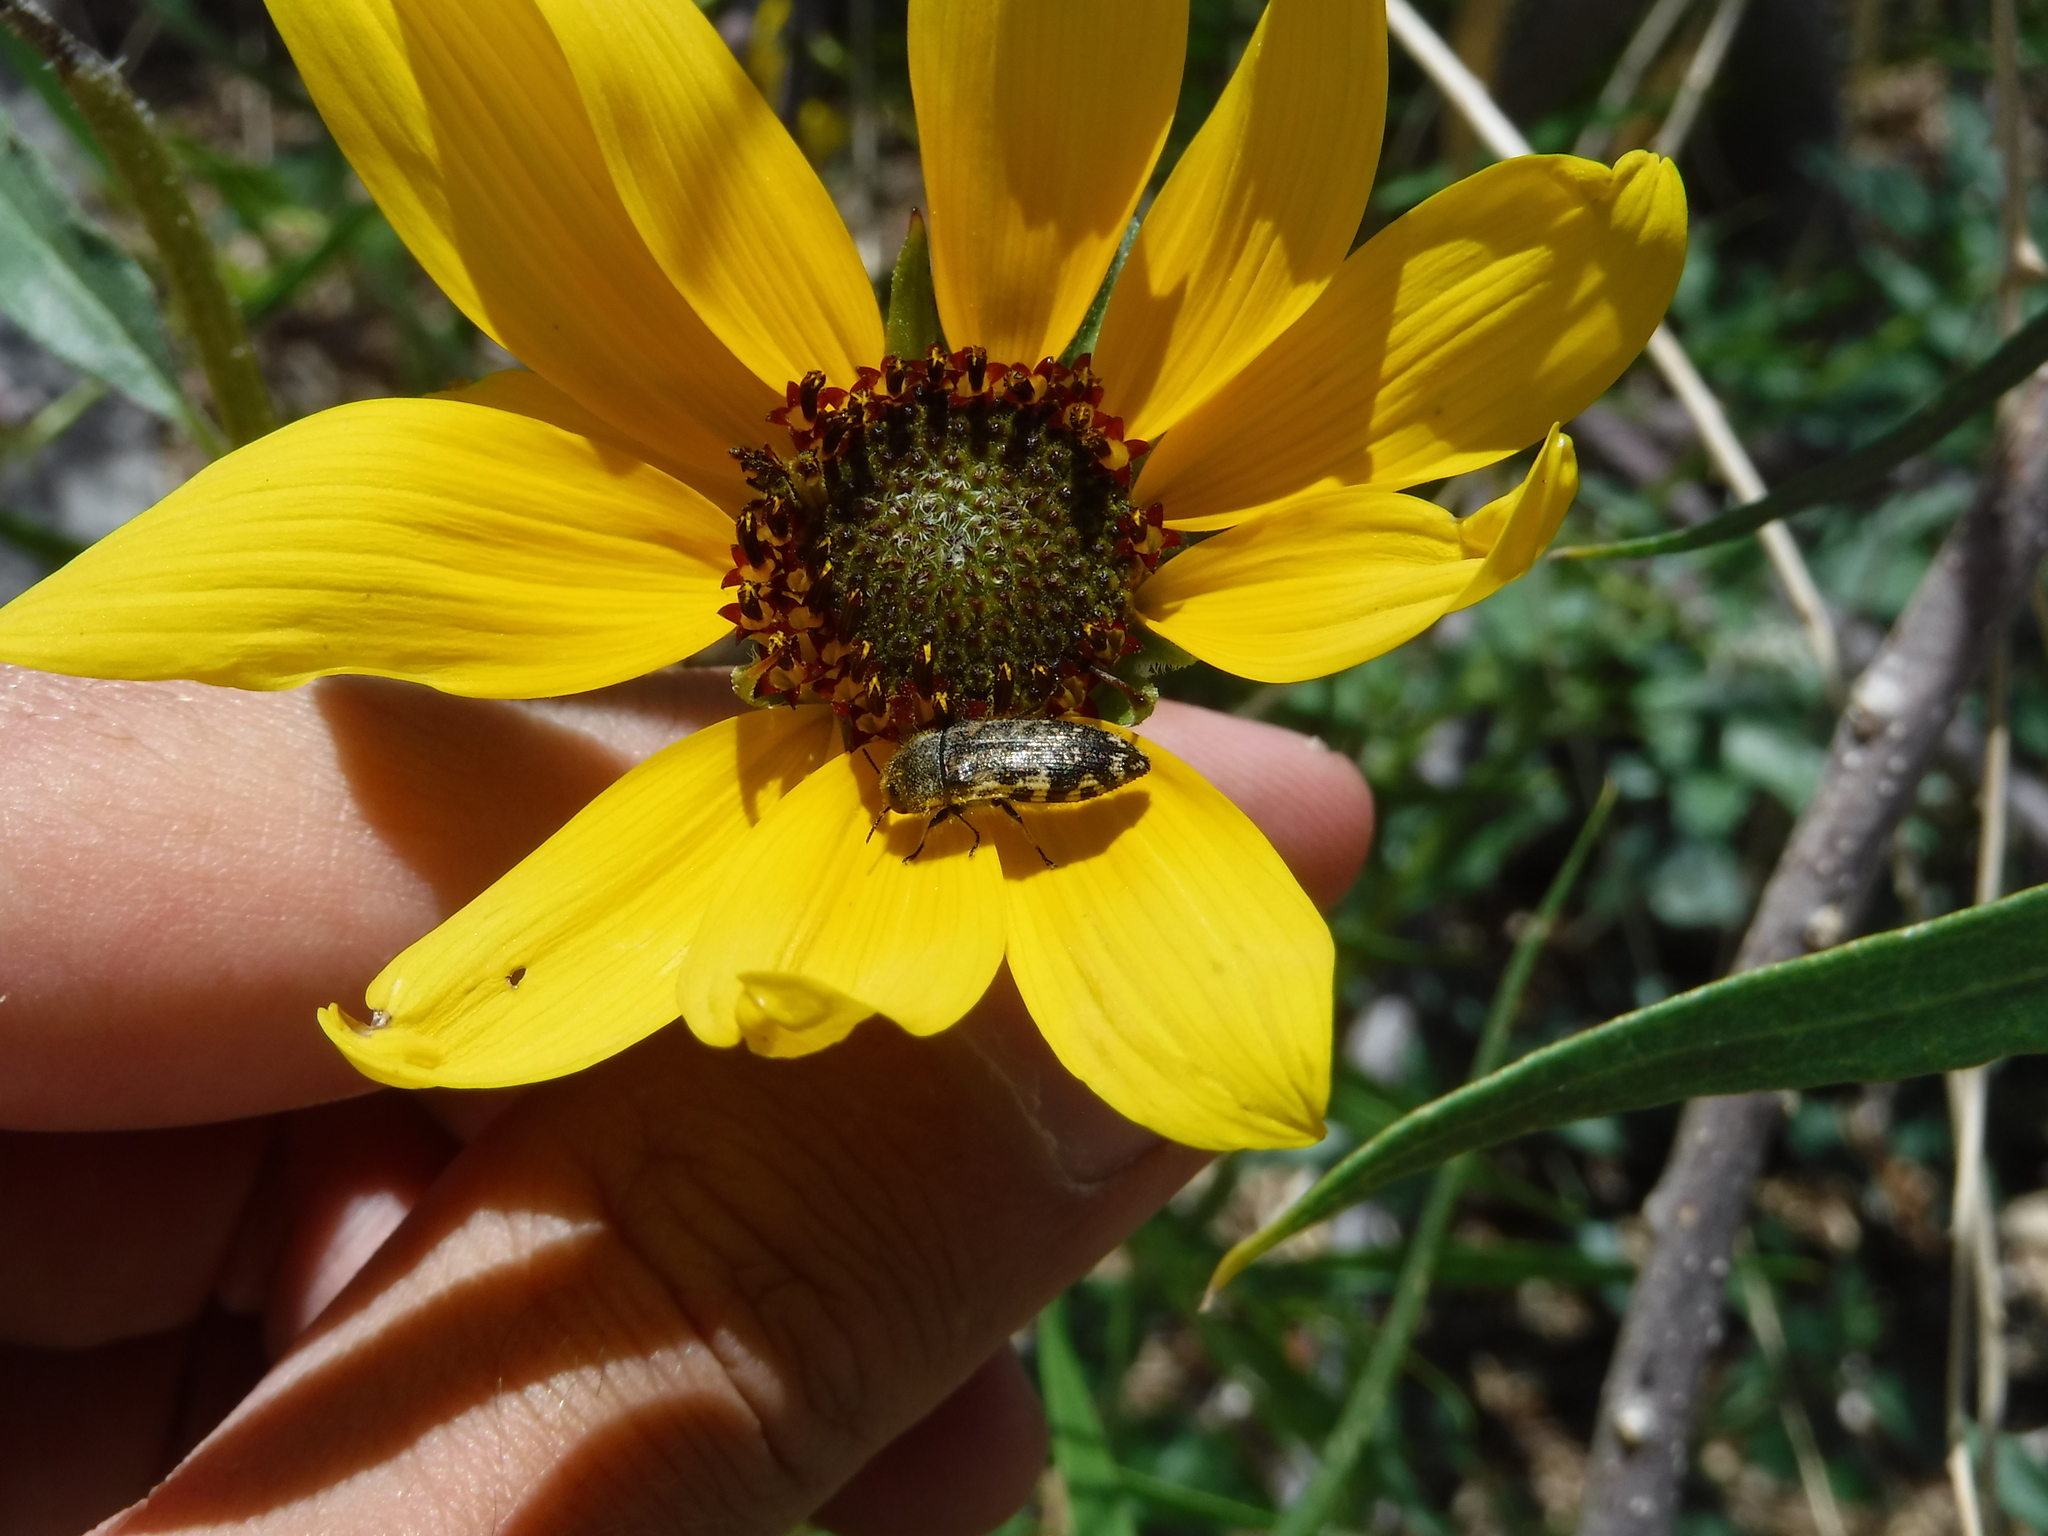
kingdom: Animalia
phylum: Arthropoda
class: Insecta
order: Coleoptera
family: Buprestidae
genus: Acmaeodera
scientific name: Acmaeodera mixta
